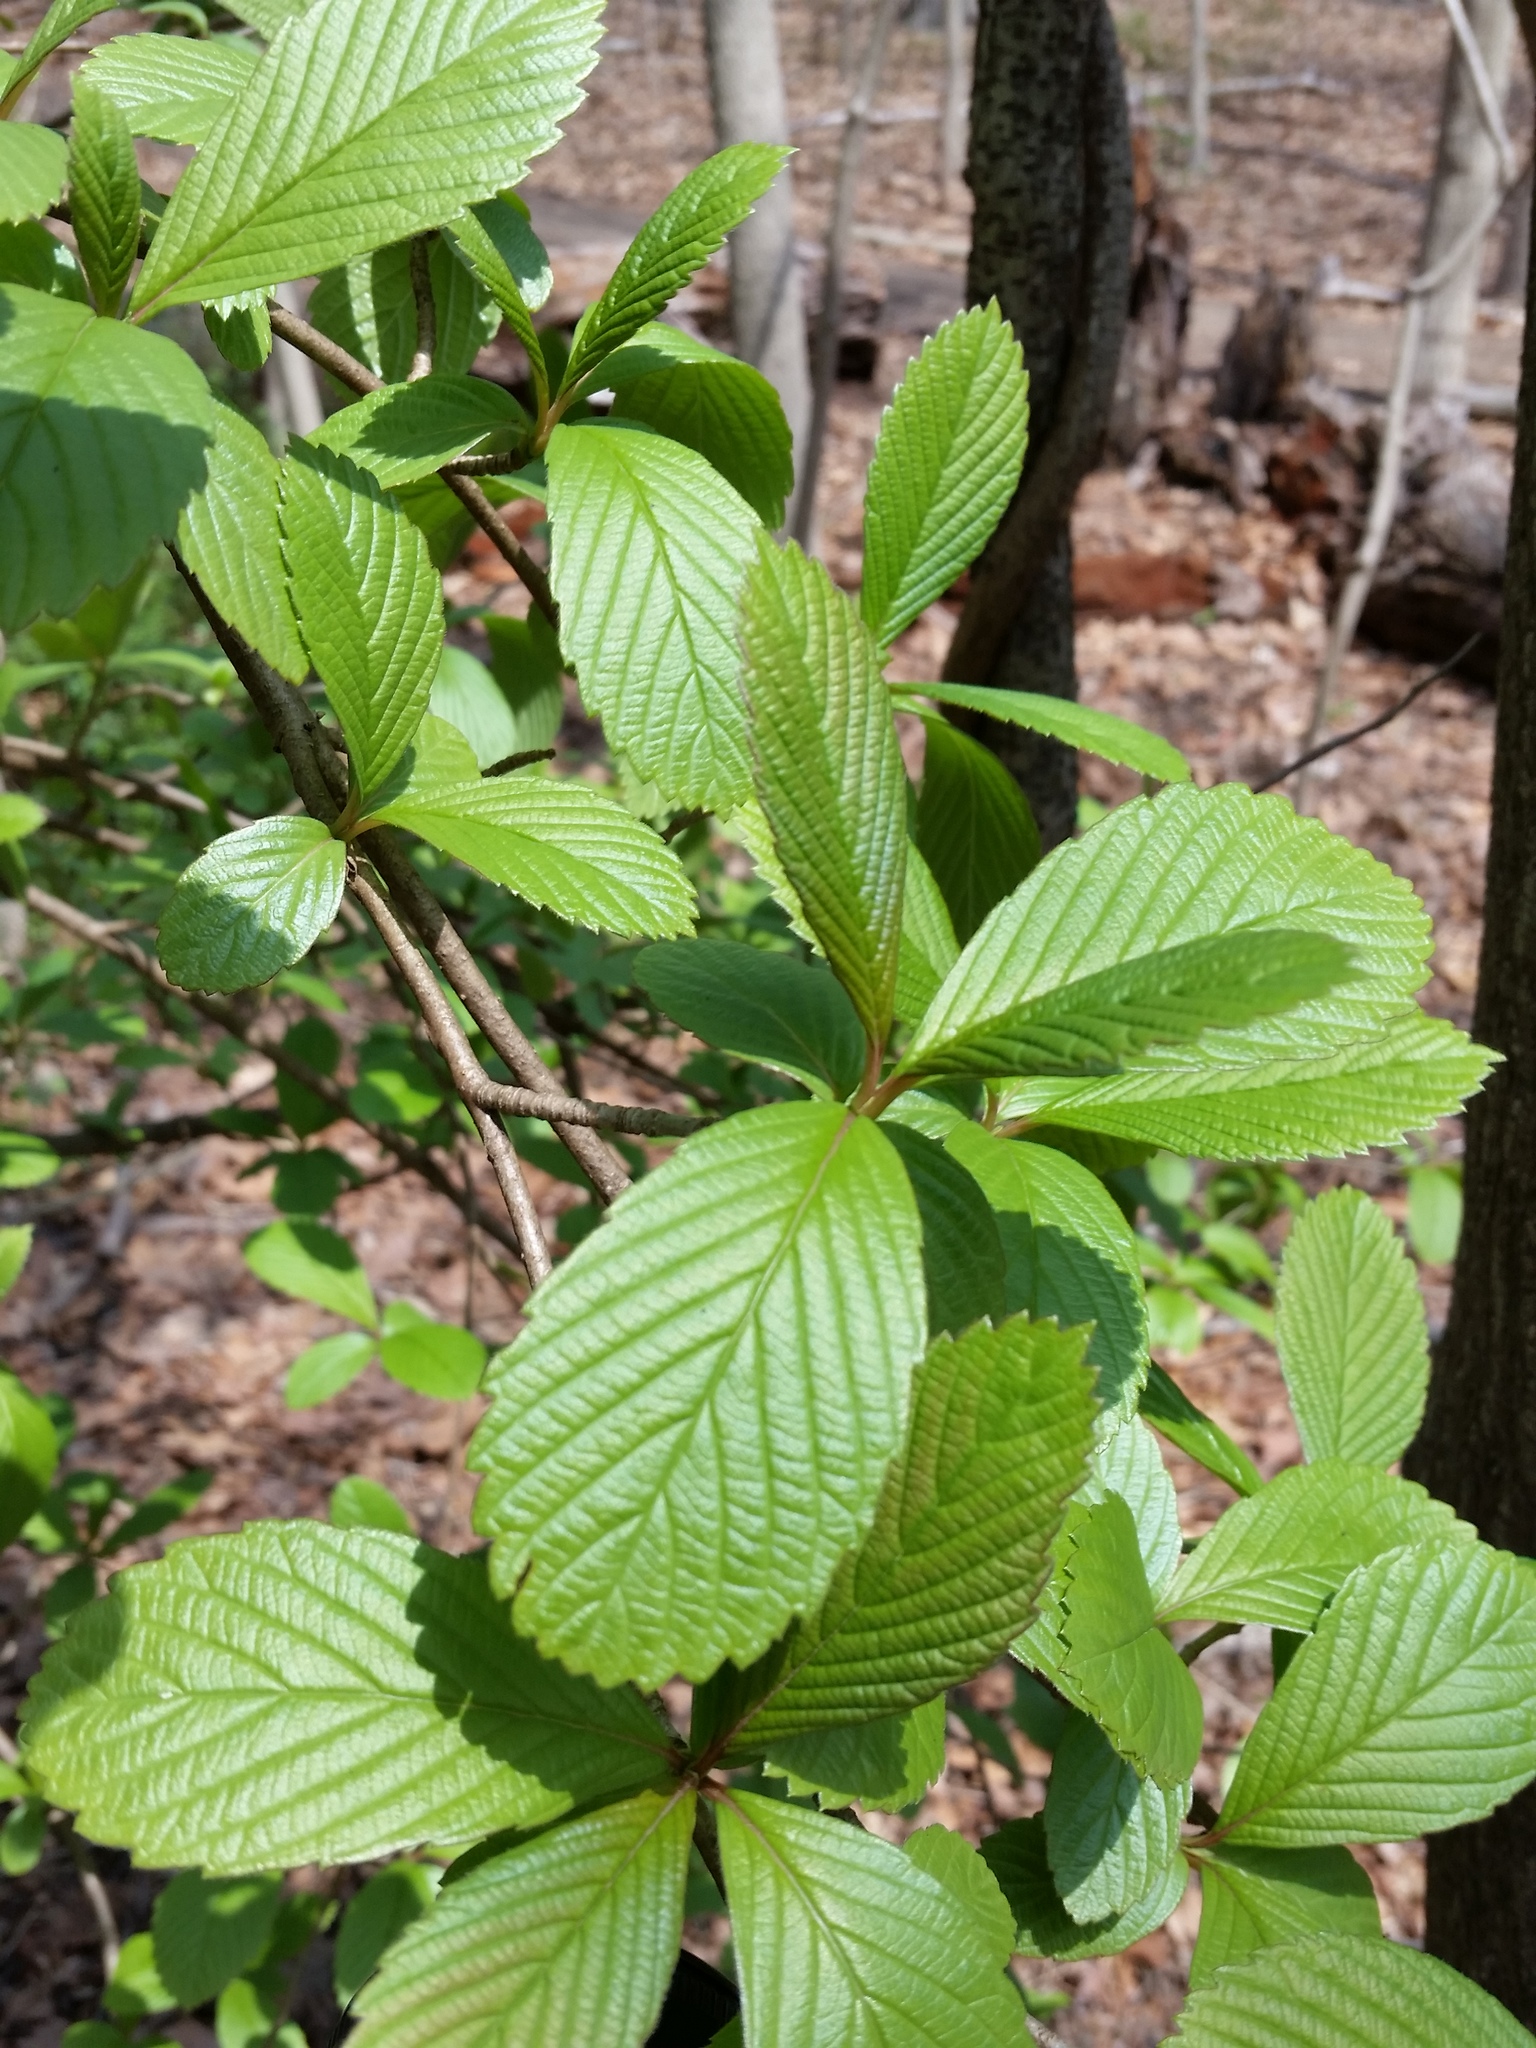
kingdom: Plantae
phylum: Tracheophyta
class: Magnoliopsida
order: Dipsacales
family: Viburnaceae
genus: Viburnum
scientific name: Viburnum sieboldii
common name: Siebold's arrowwood
